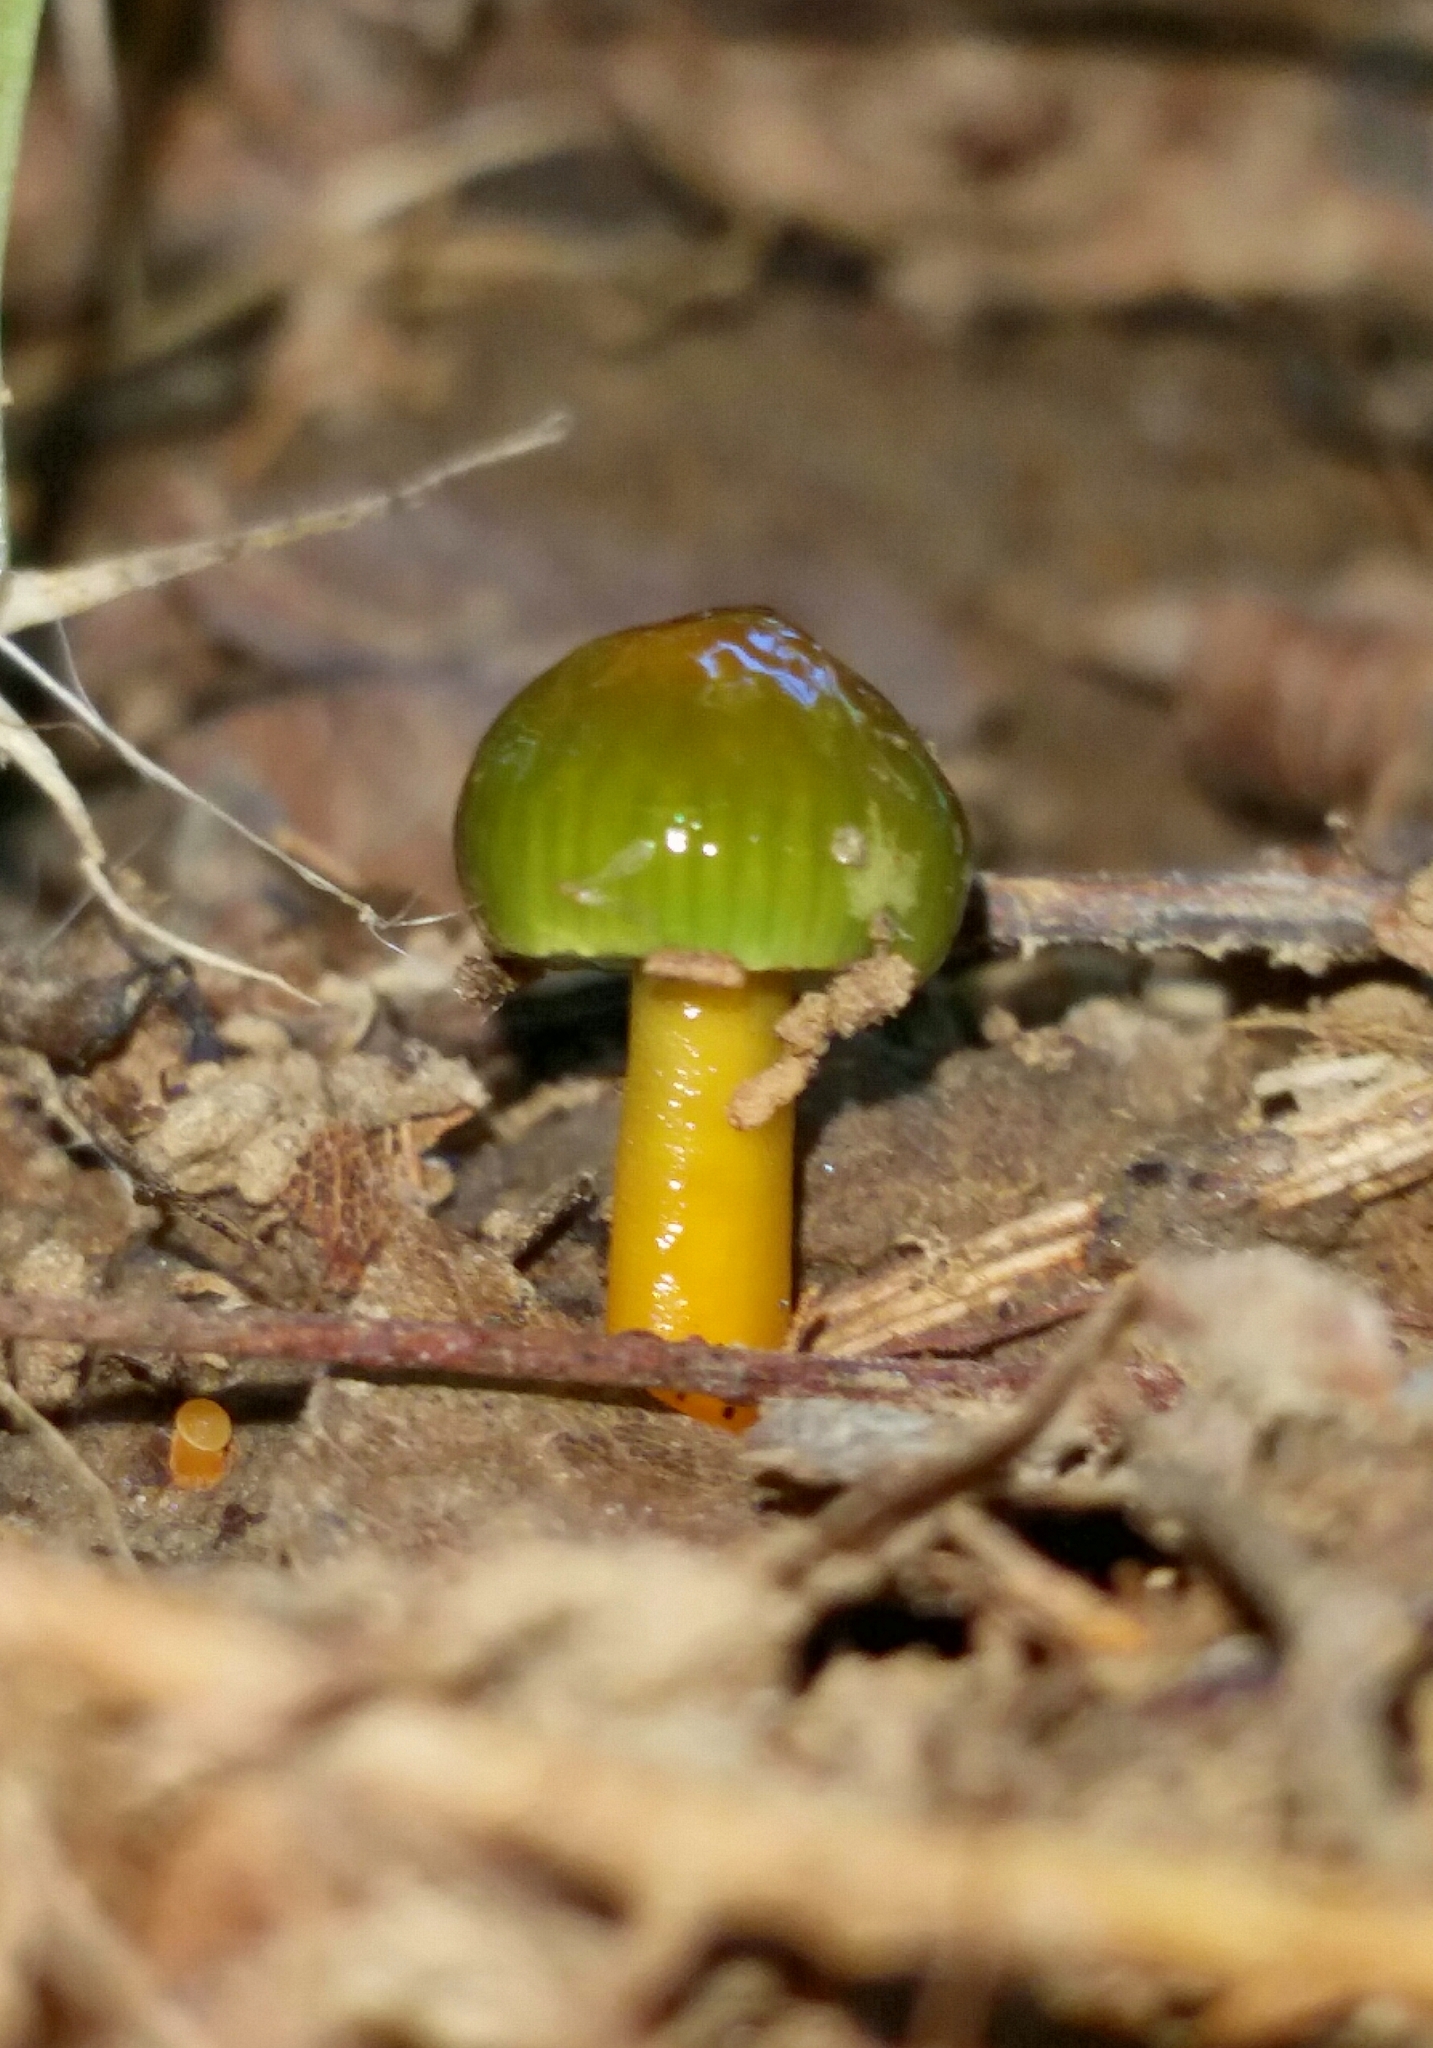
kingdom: Fungi
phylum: Basidiomycota
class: Agaricomycetes
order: Agaricales
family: Hygrophoraceae
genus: Gliophorus
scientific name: Gliophorus psittacinus
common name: Parrot wax-cap
